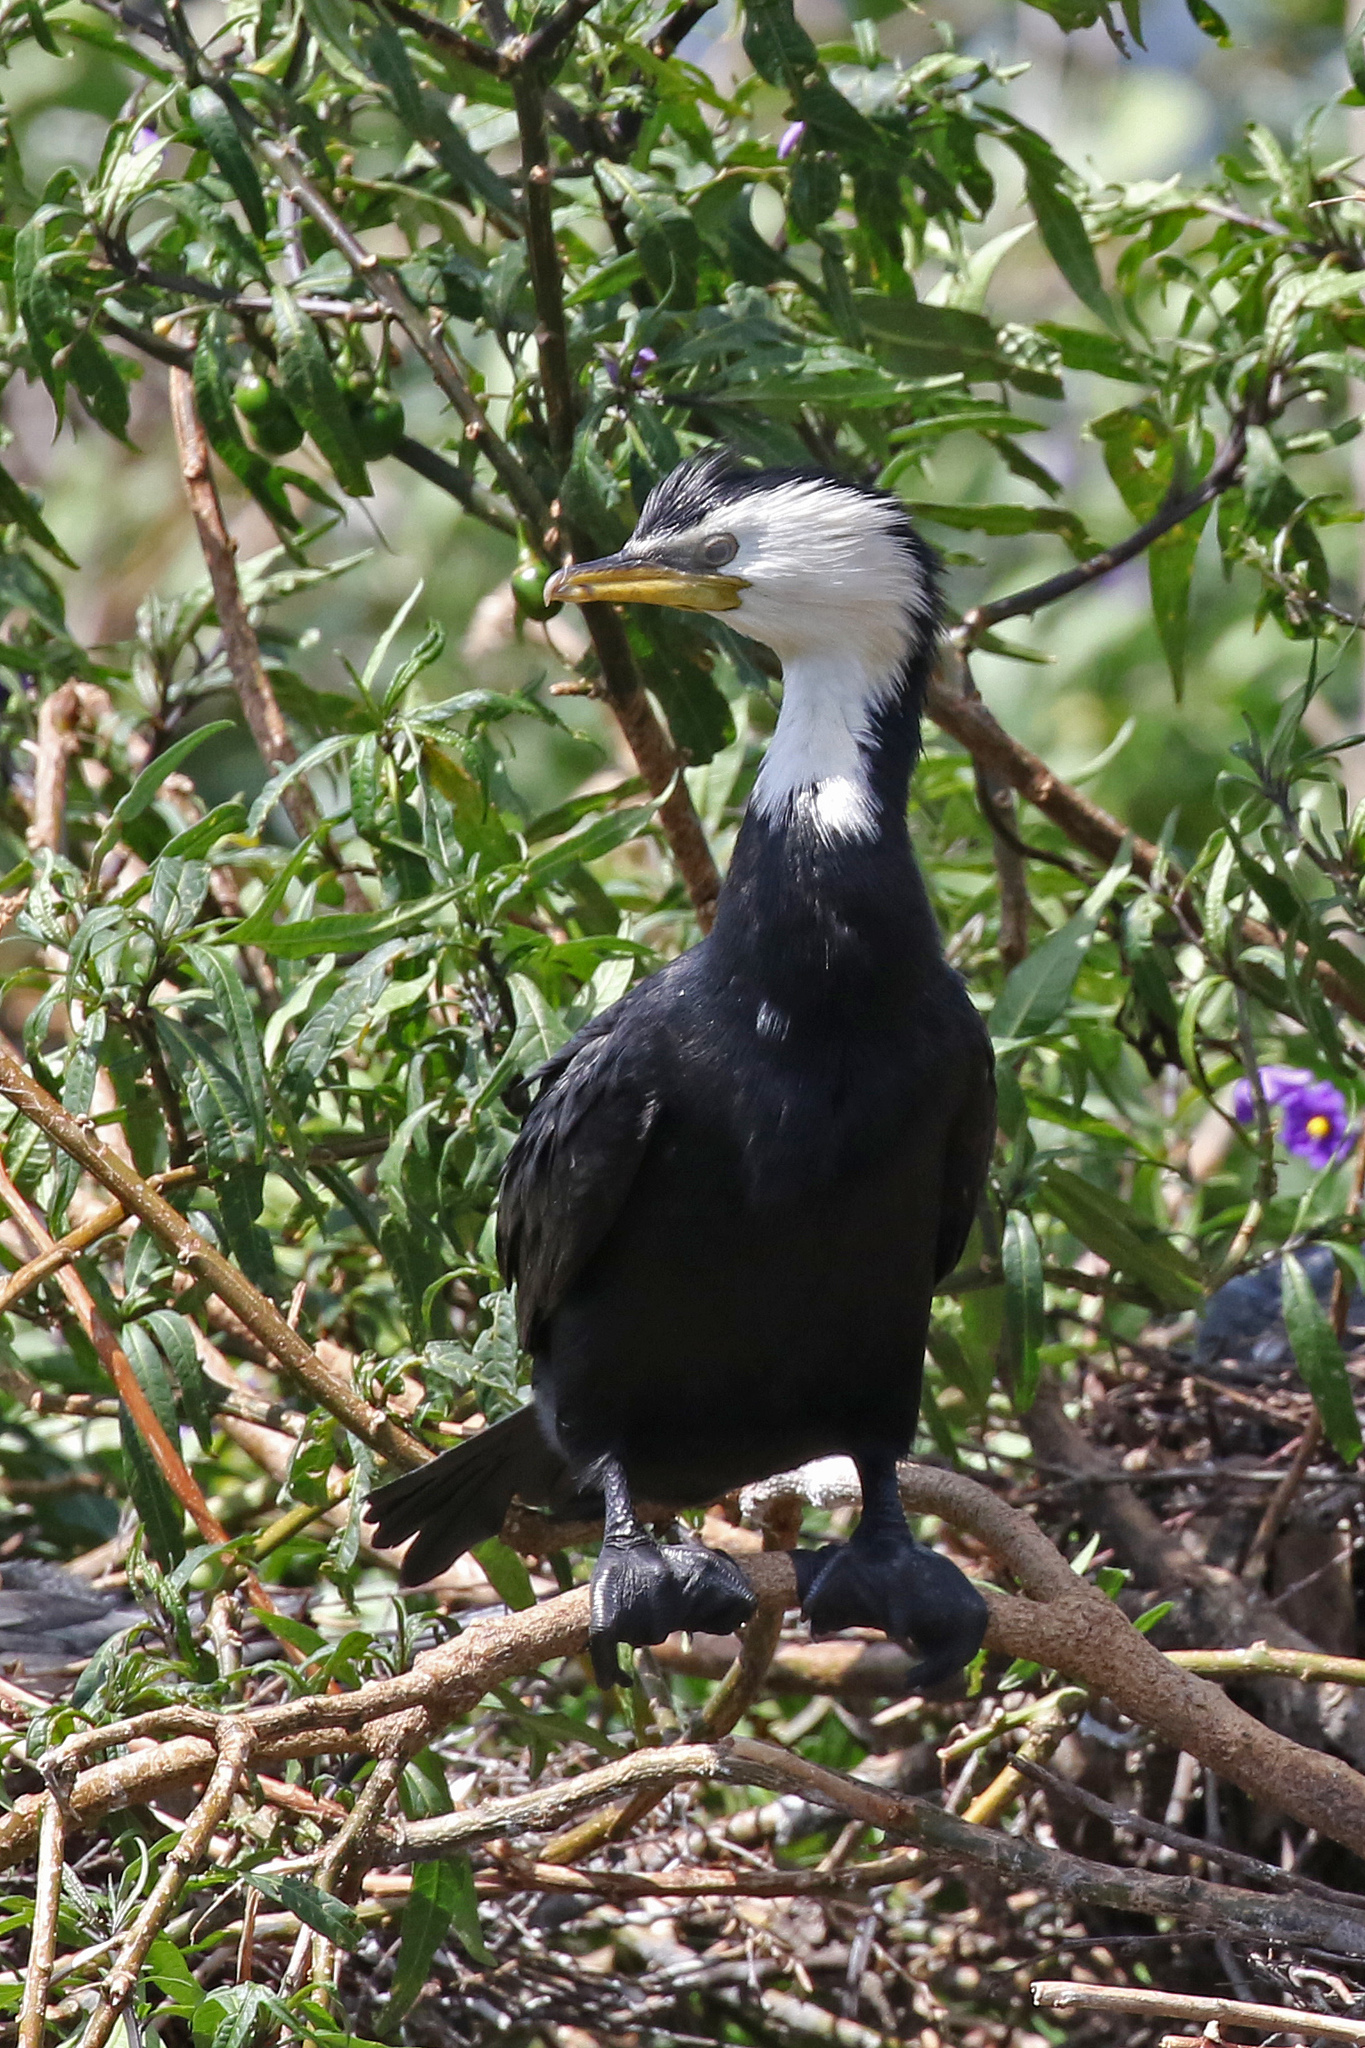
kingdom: Animalia
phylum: Chordata
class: Aves
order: Suliformes
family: Phalacrocoracidae
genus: Microcarbo
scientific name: Microcarbo melanoleucos
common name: Little pied cormorant
